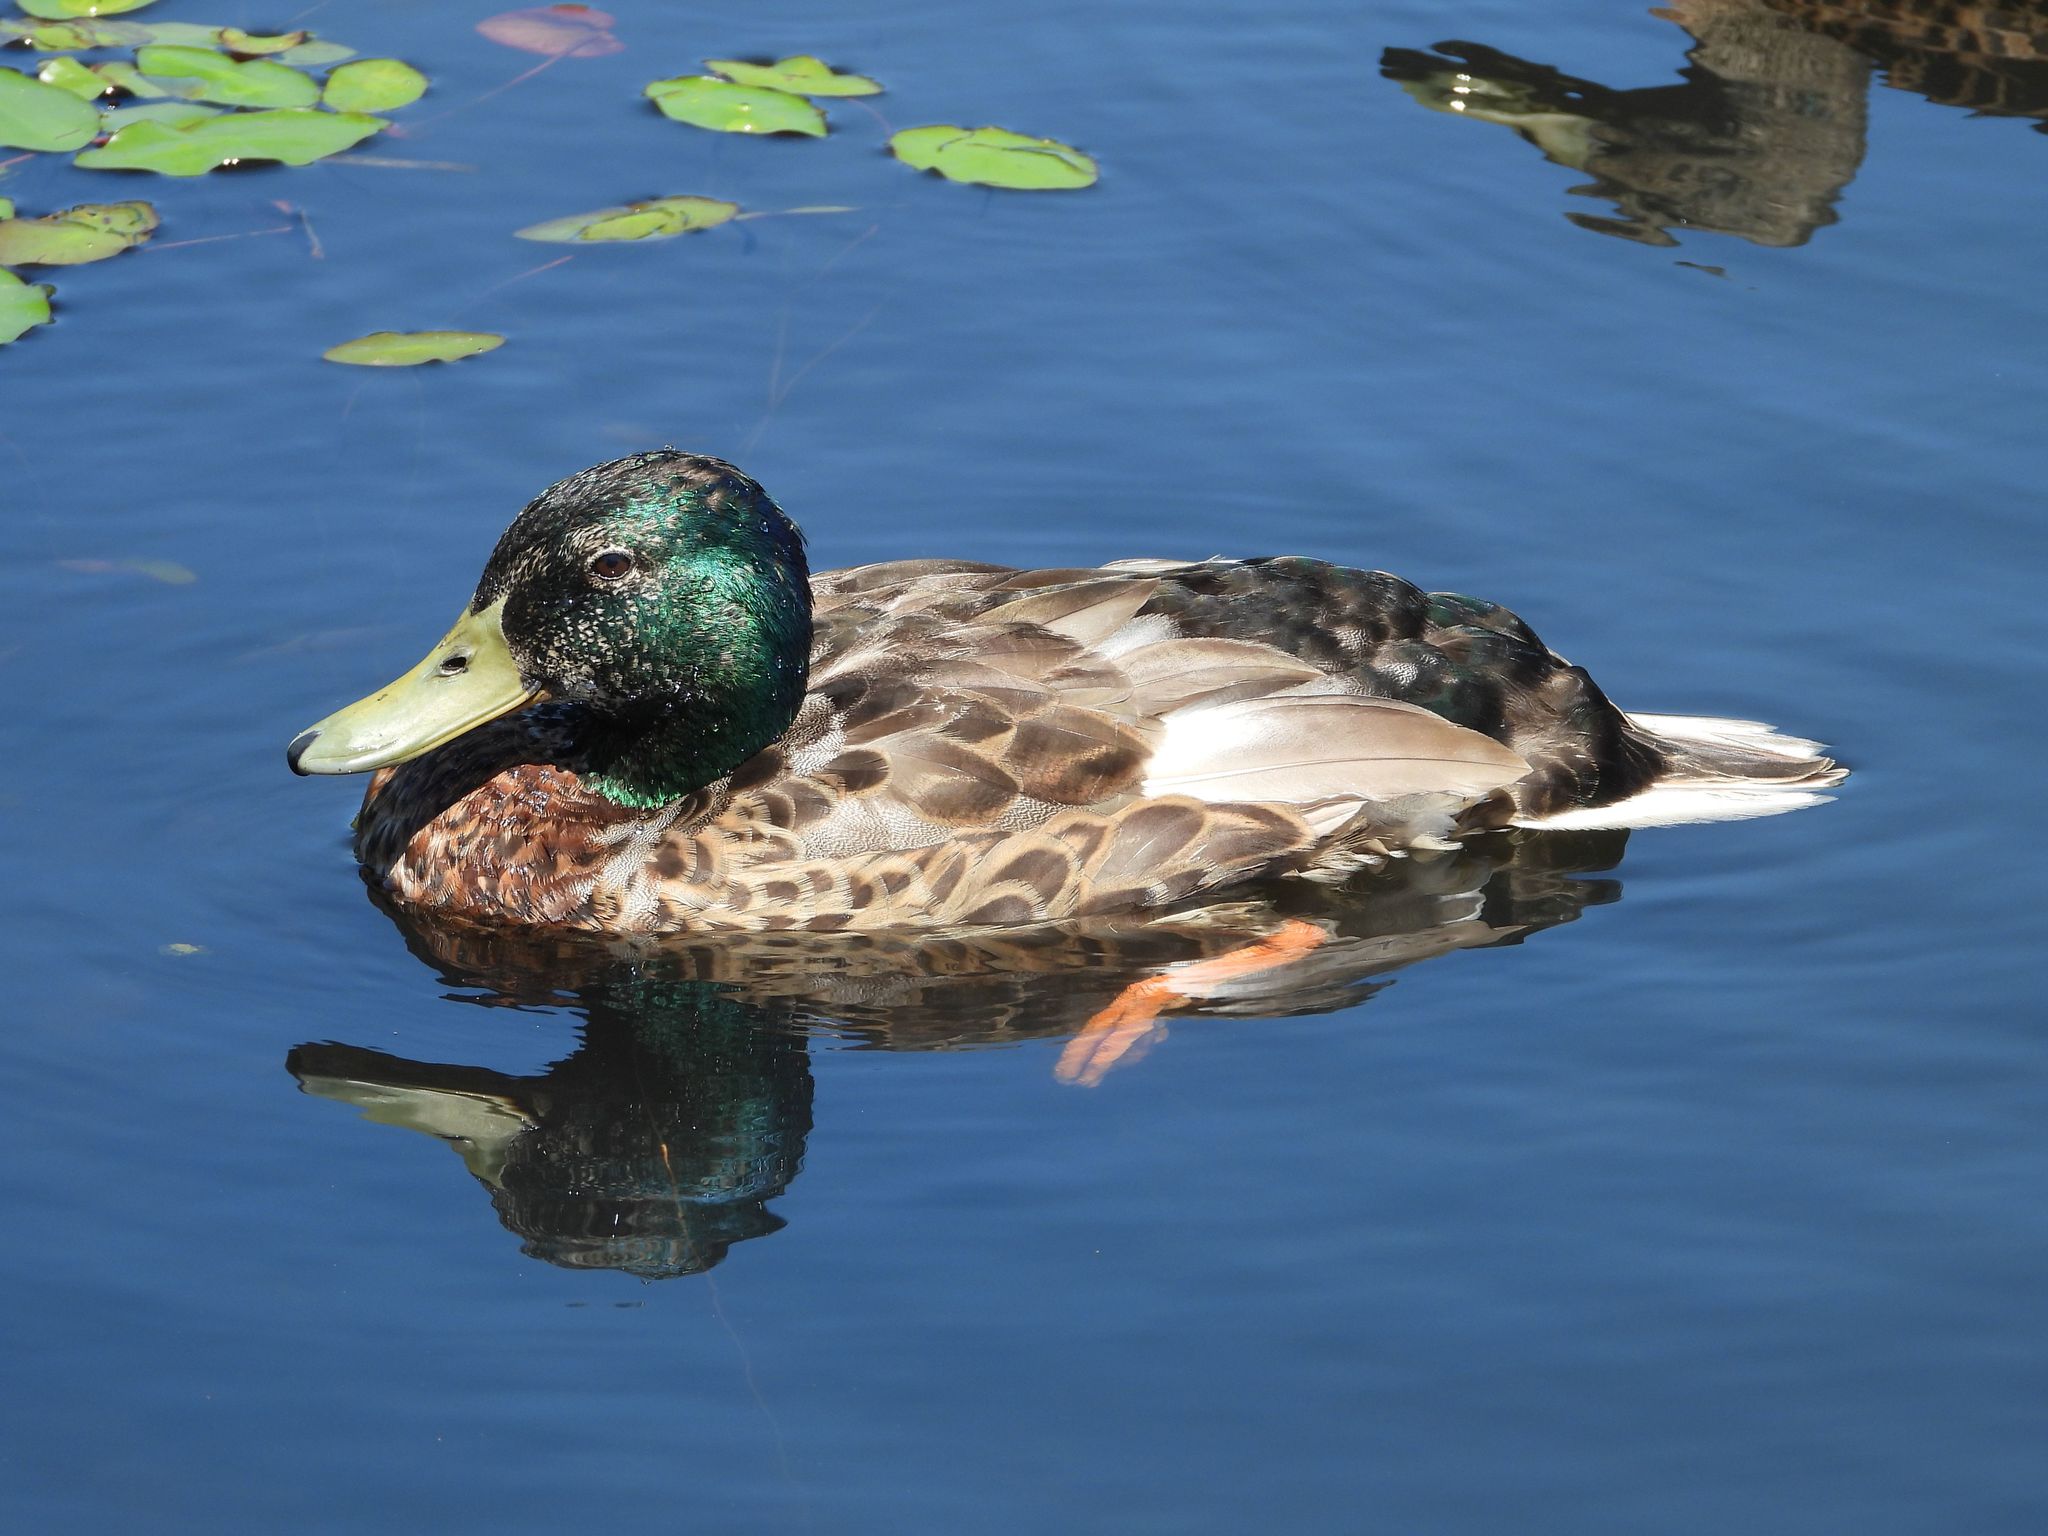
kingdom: Animalia
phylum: Chordata
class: Aves
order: Anseriformes
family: Anatidae
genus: Anas
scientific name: Anas platyrhynchos
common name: Mallard
